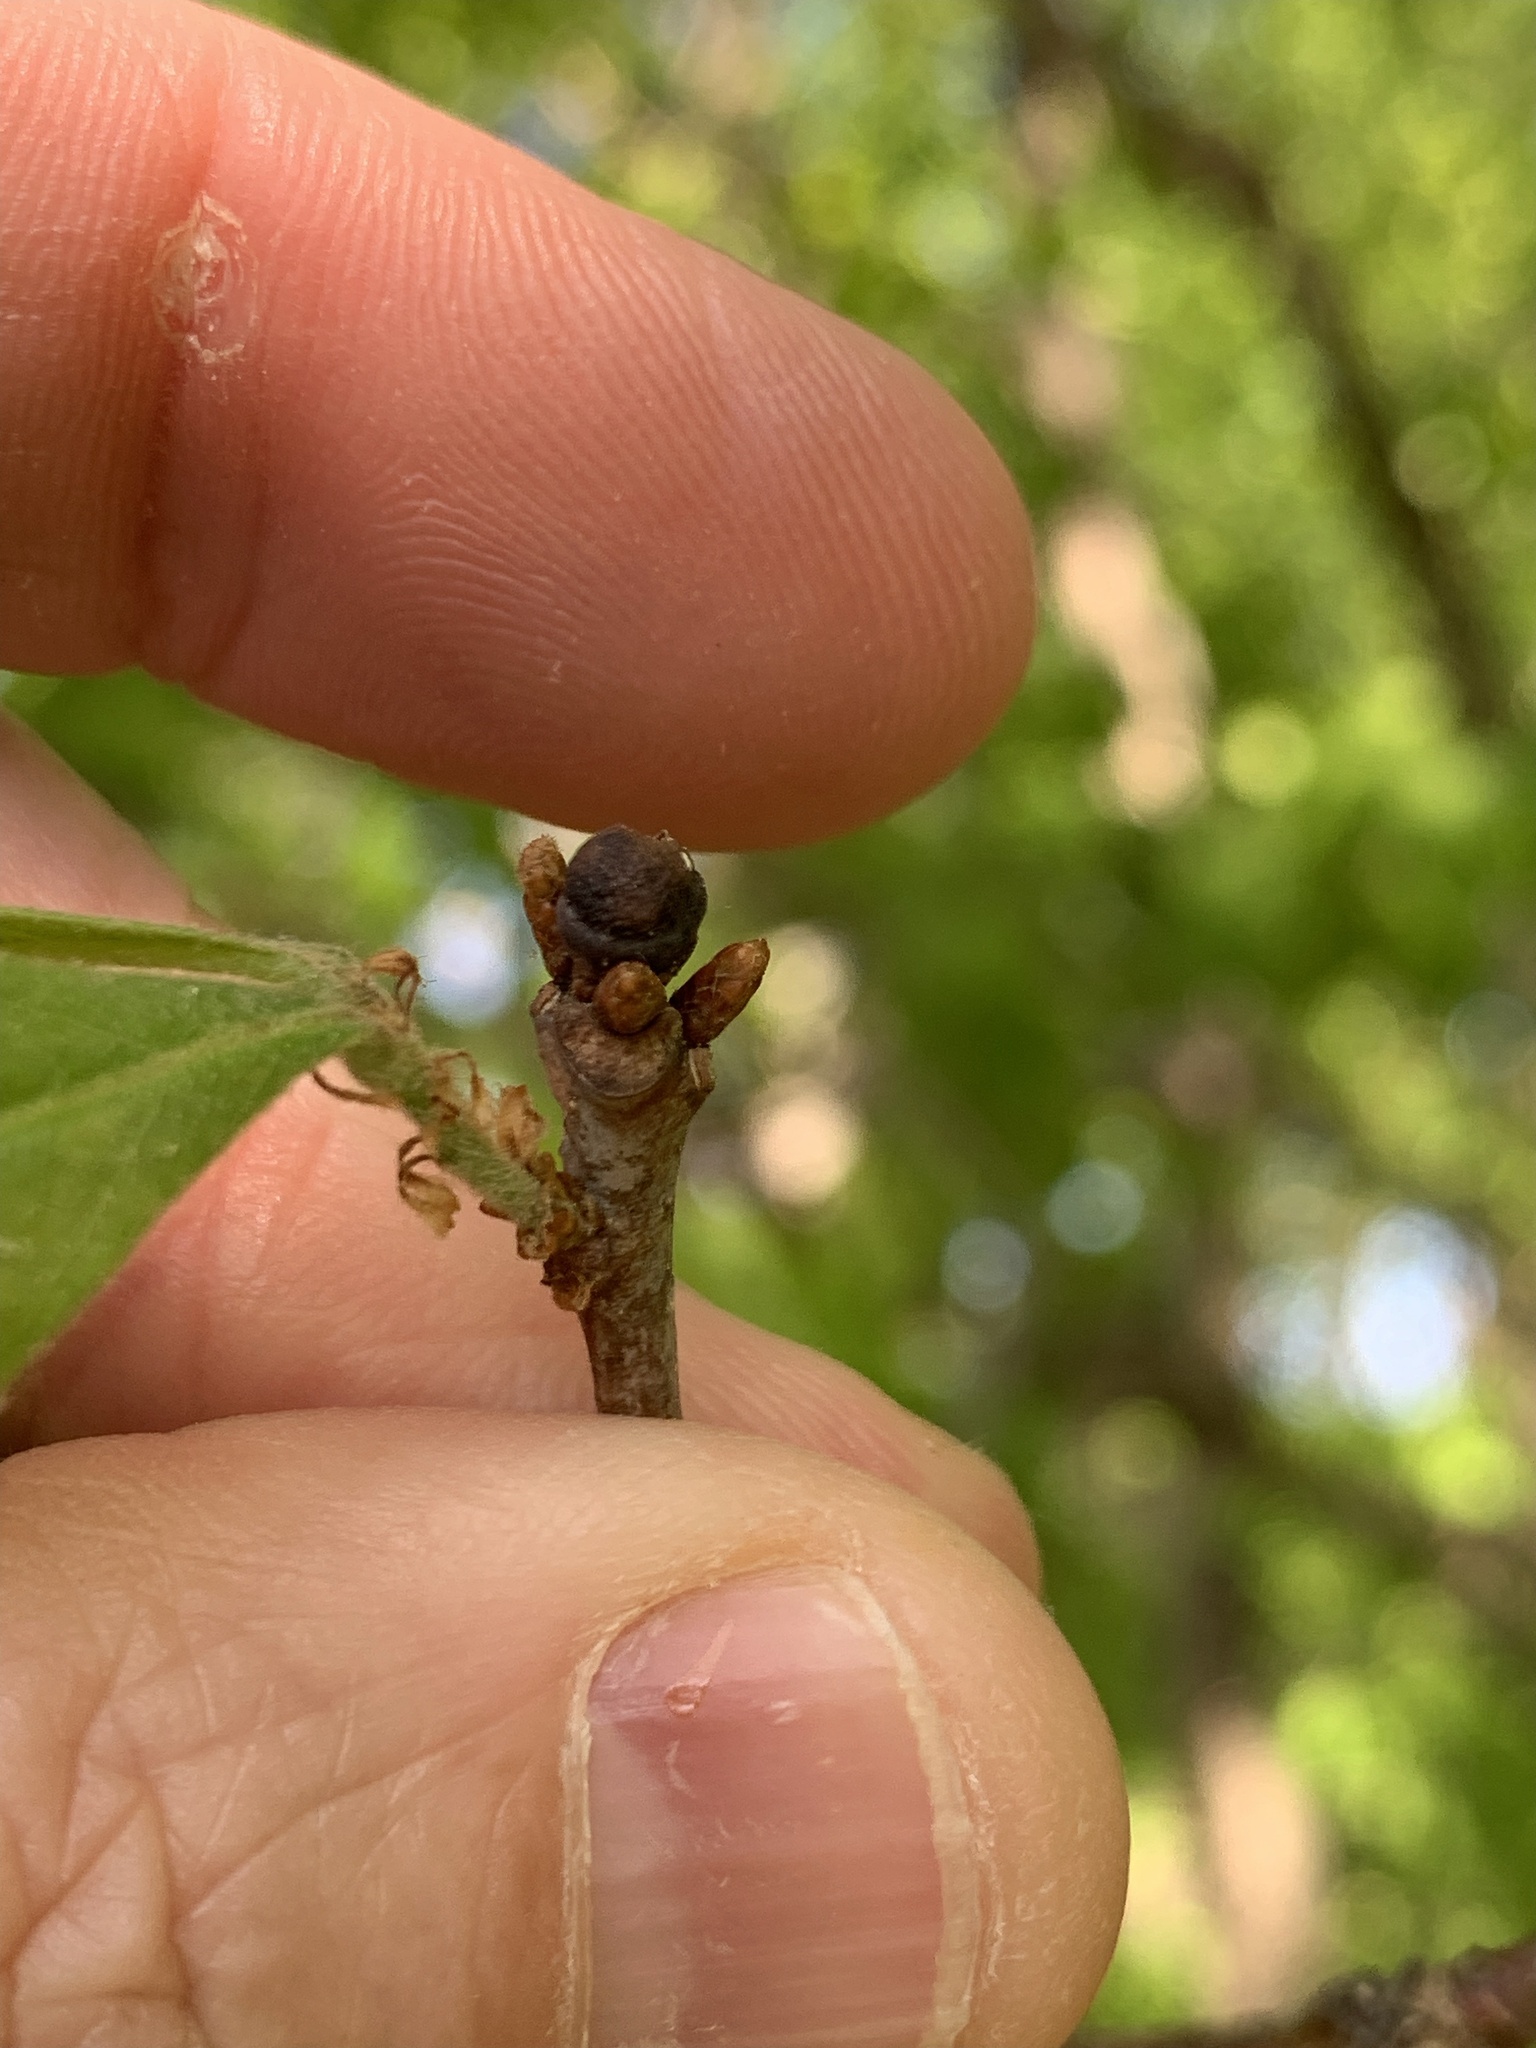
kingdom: Animalia
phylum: Arthropoda
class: Insecta
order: Hymenoptera
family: Cynipidae
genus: Neuroterus
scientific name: Neuroterus
